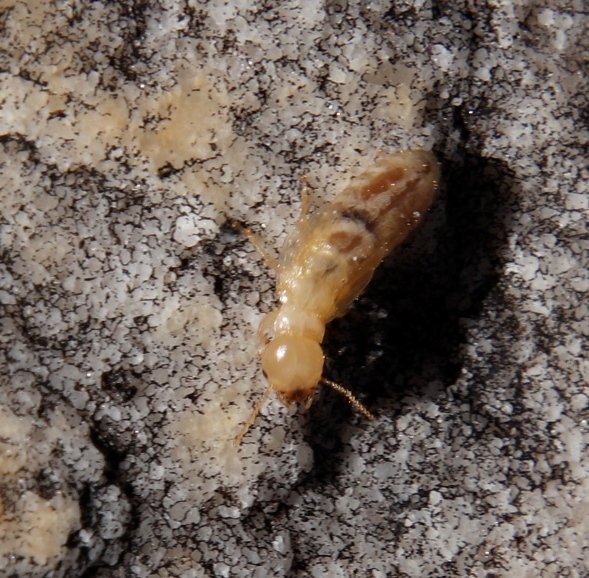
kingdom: Animalia
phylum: Arthropoda
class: Insecta
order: Blattodea
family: Stolotermitidae
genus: Porotermes
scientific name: Porotermes planiceps
